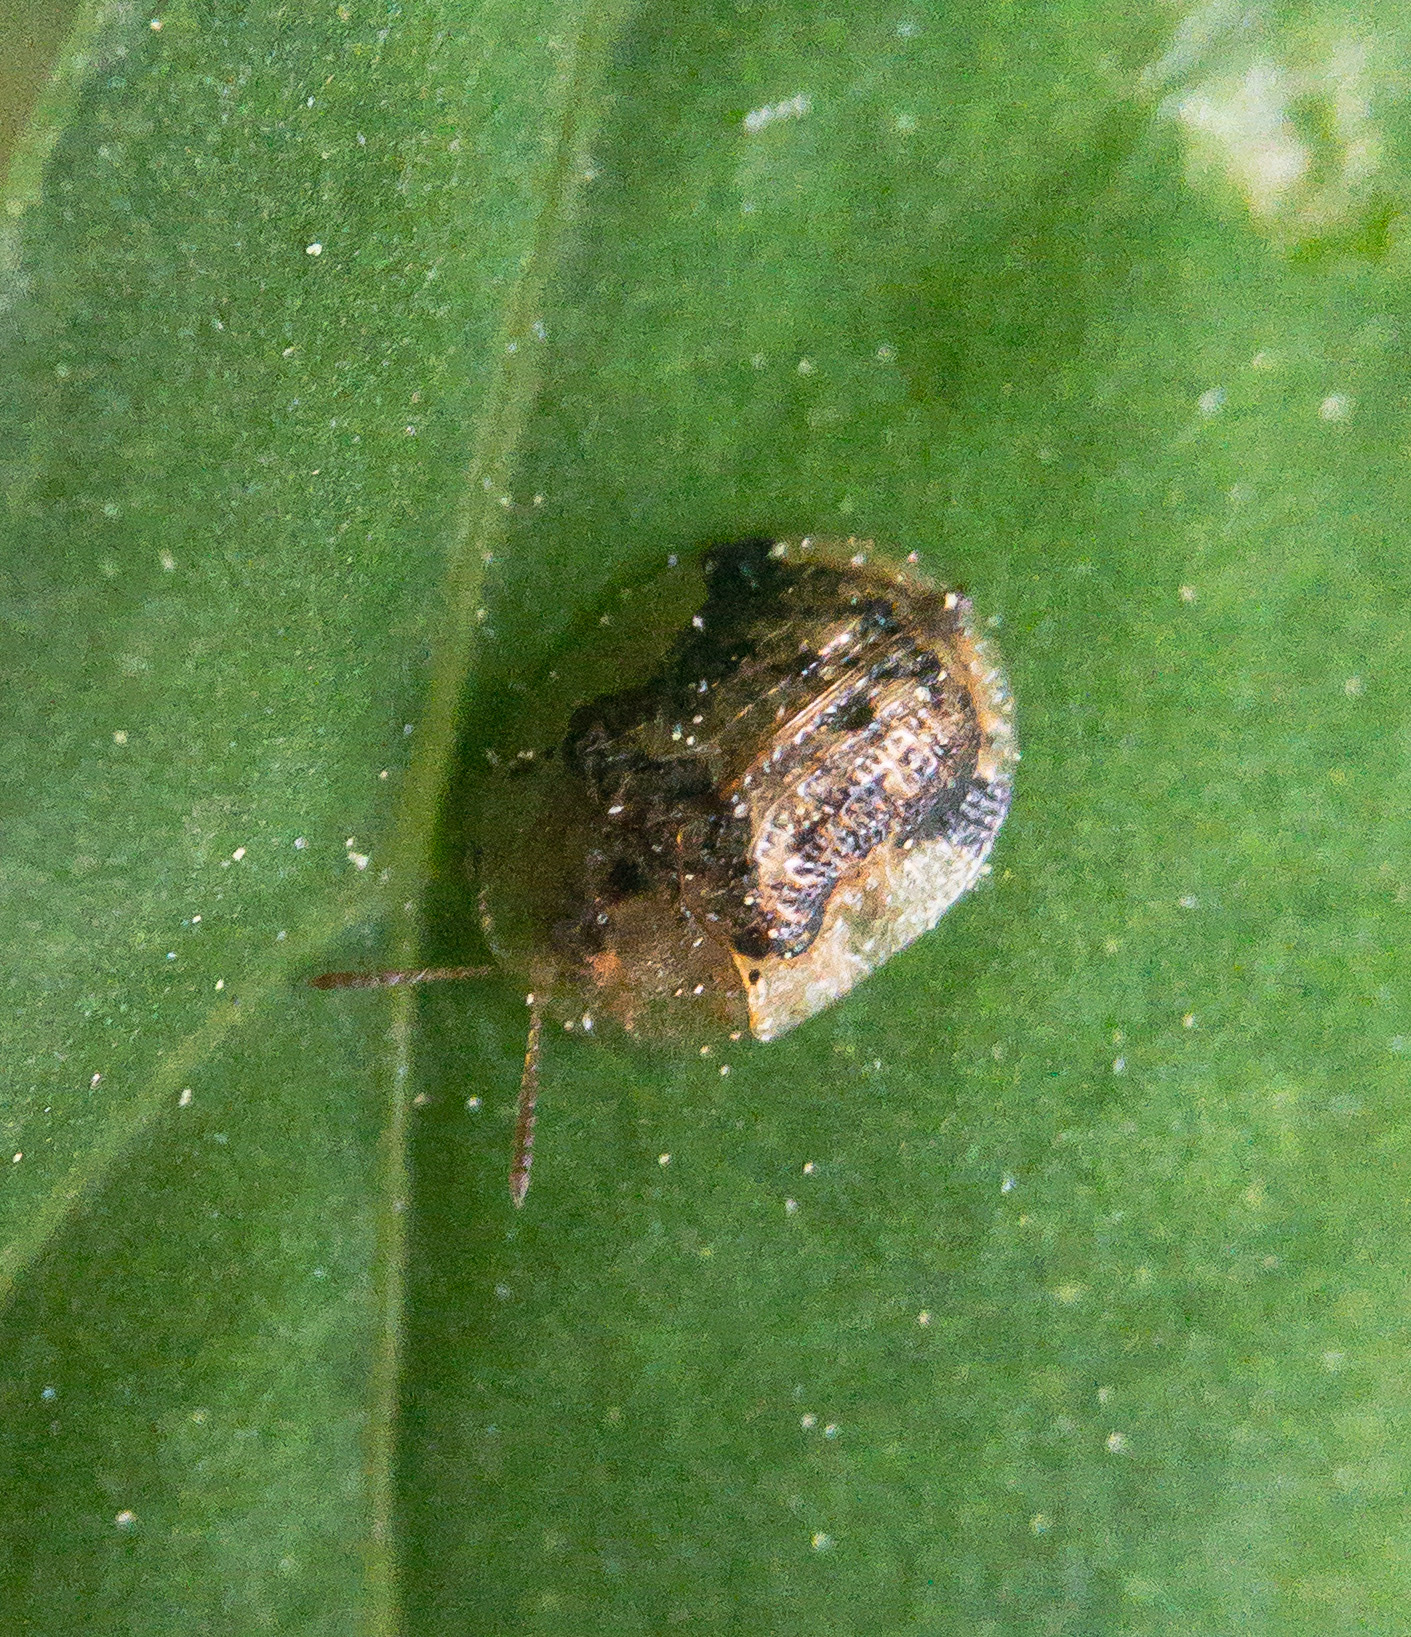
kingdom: Animalia
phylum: Arthropoda
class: Insecta
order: Coleoptera
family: Chrysomelidae
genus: Cassida
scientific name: Cassida piperata
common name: Small tortoise beetle
